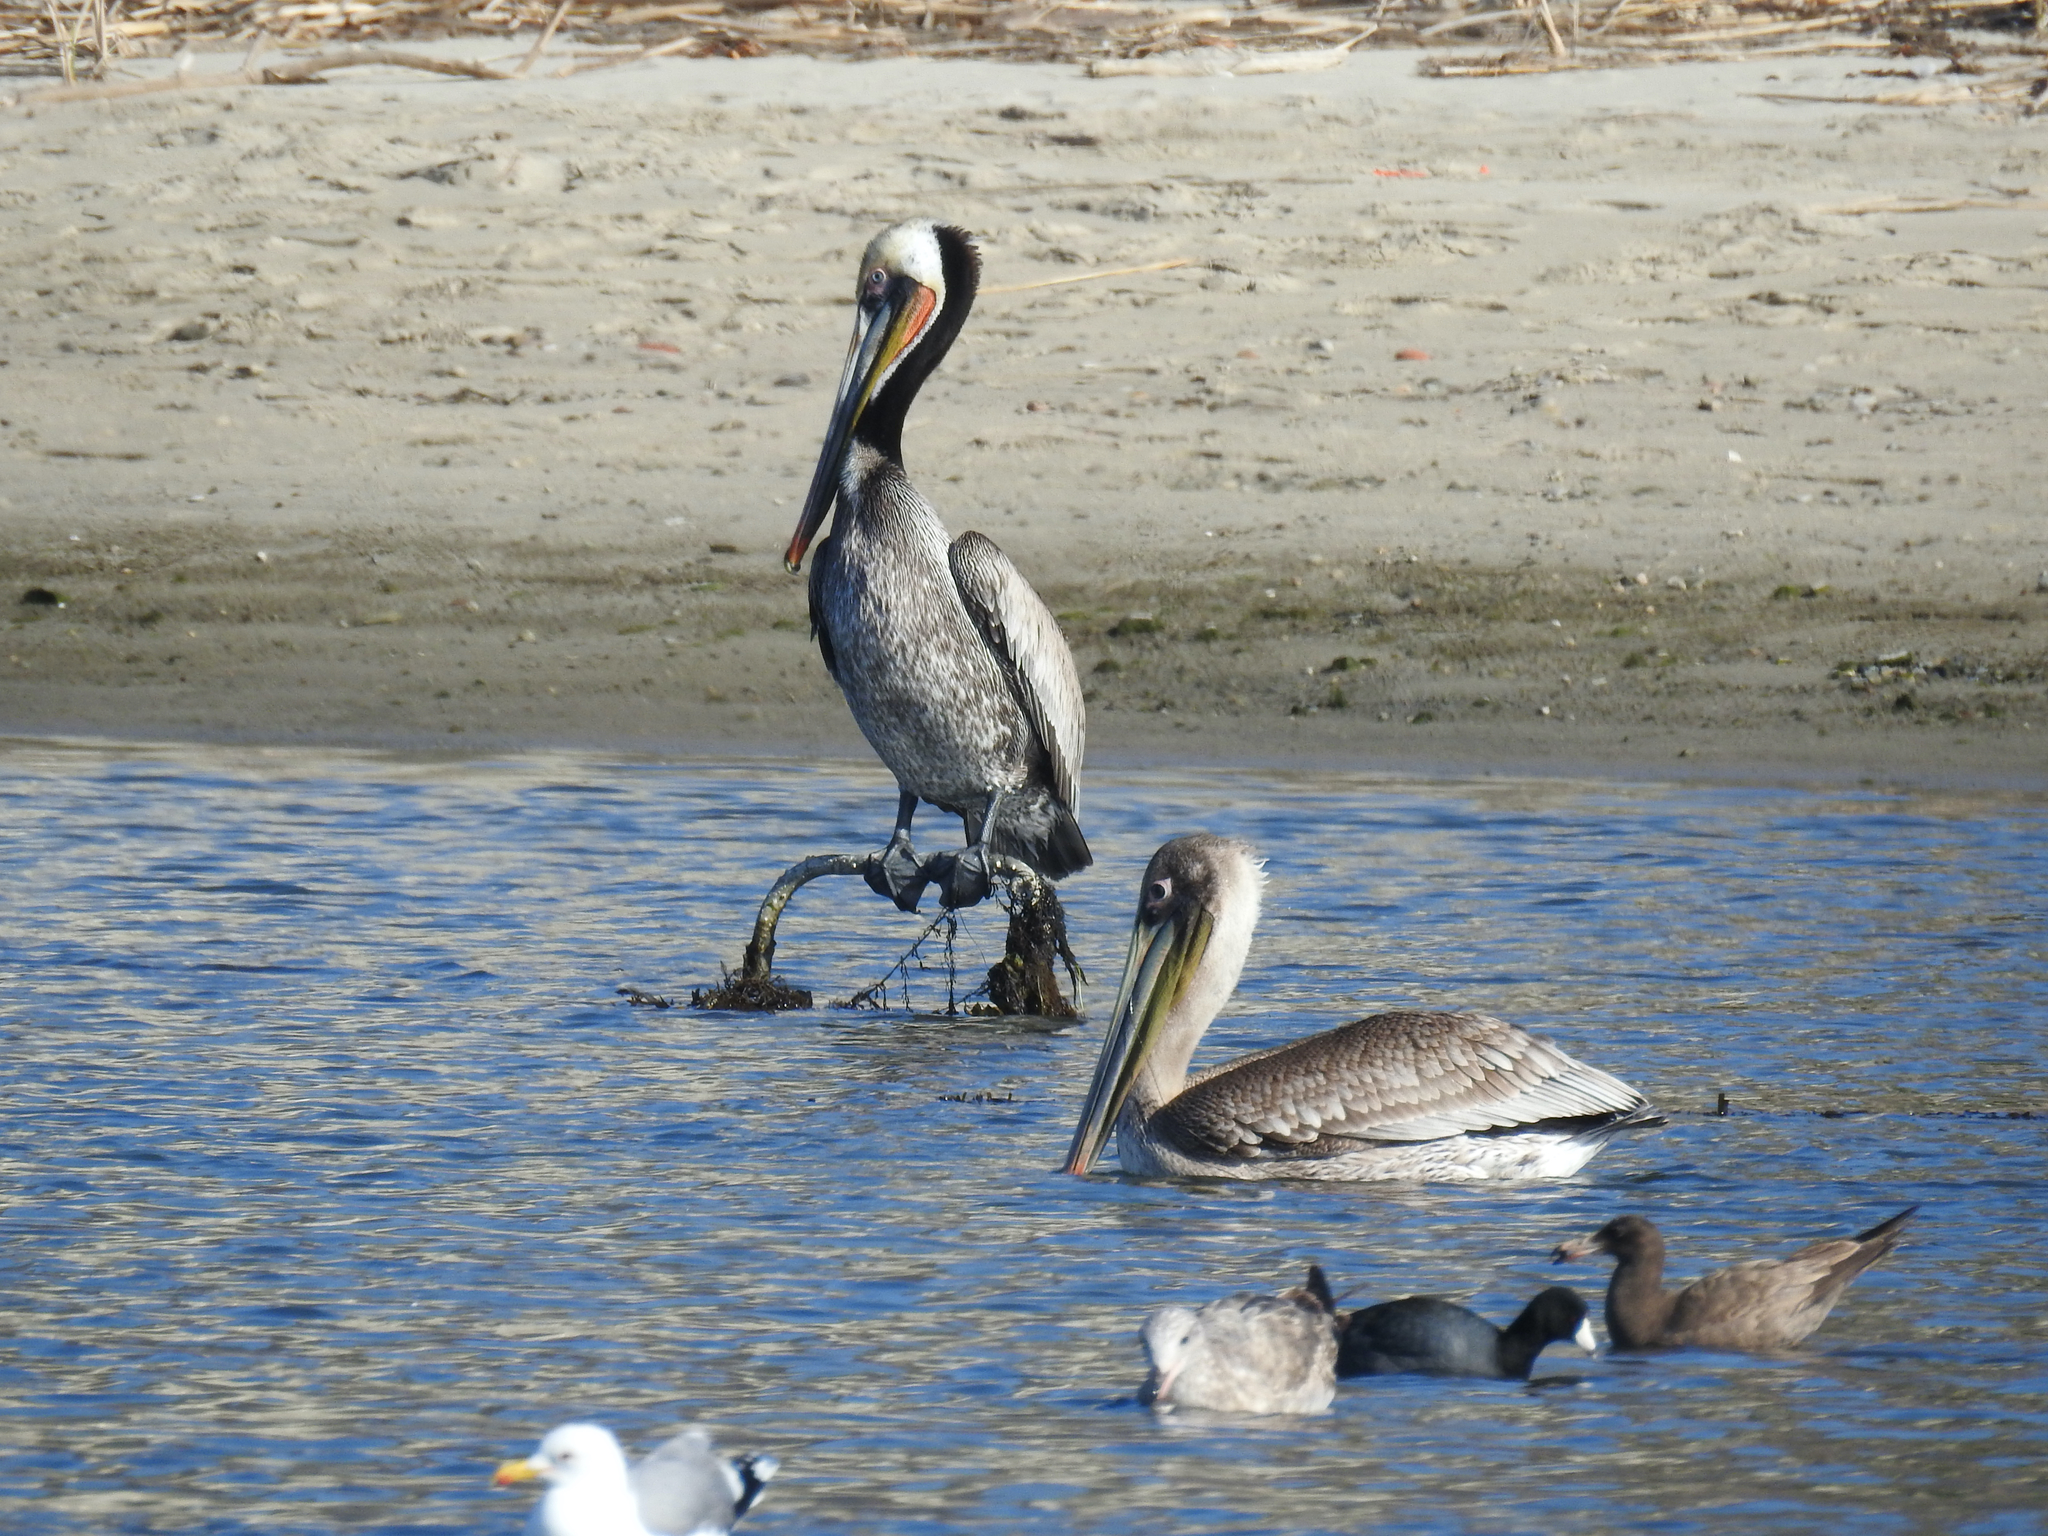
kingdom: Animalia
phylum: Chordata
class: Aves
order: Pelecaniformes
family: Pelecanidae
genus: Pelecanus
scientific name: Pelecanus occidentalis
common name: Brown pelican
